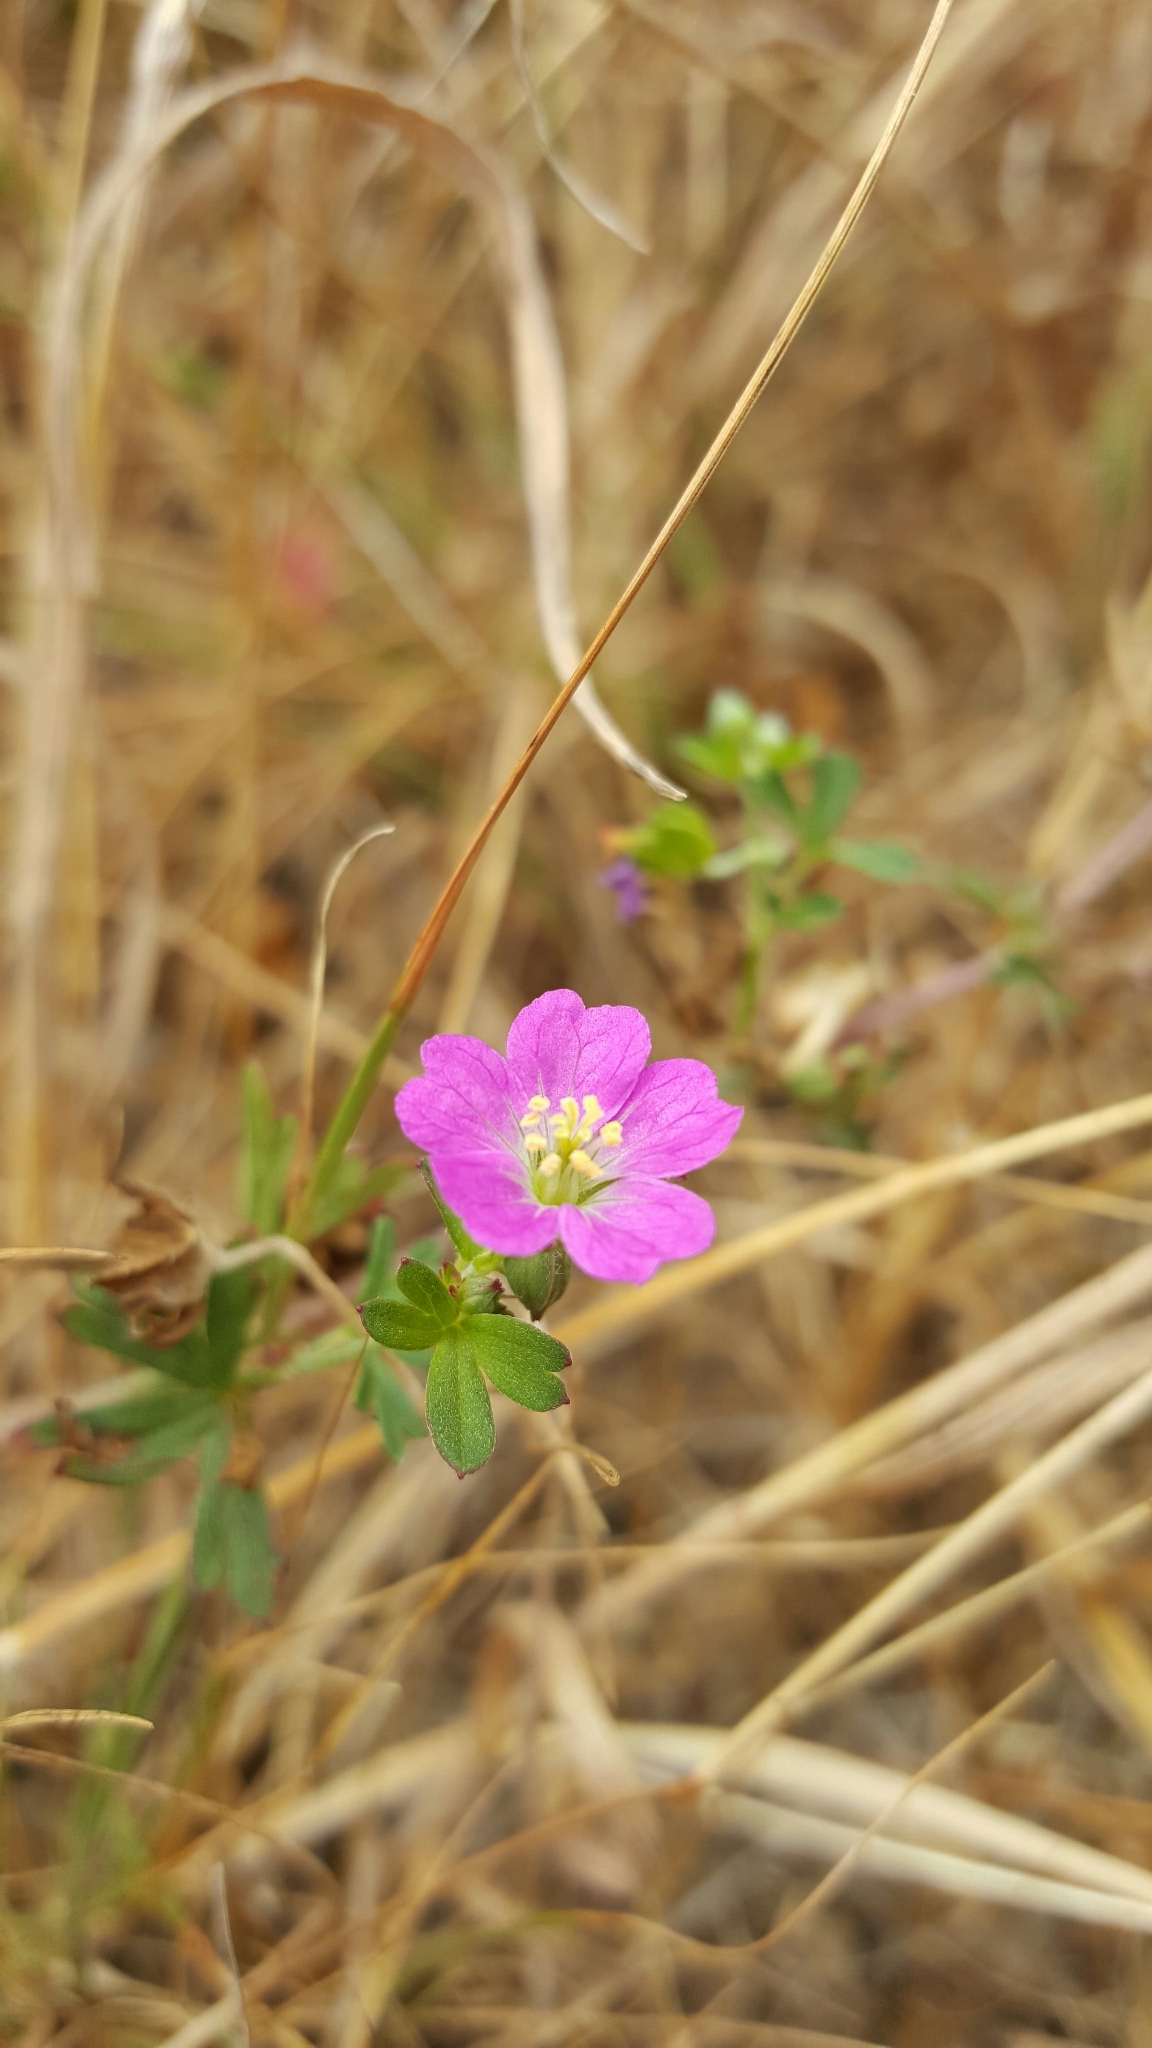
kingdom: Plantae
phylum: Tracheophyta
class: Magnoliopsida
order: Geraniales
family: Geraniaceae
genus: Geranium
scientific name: Geranium core-core
